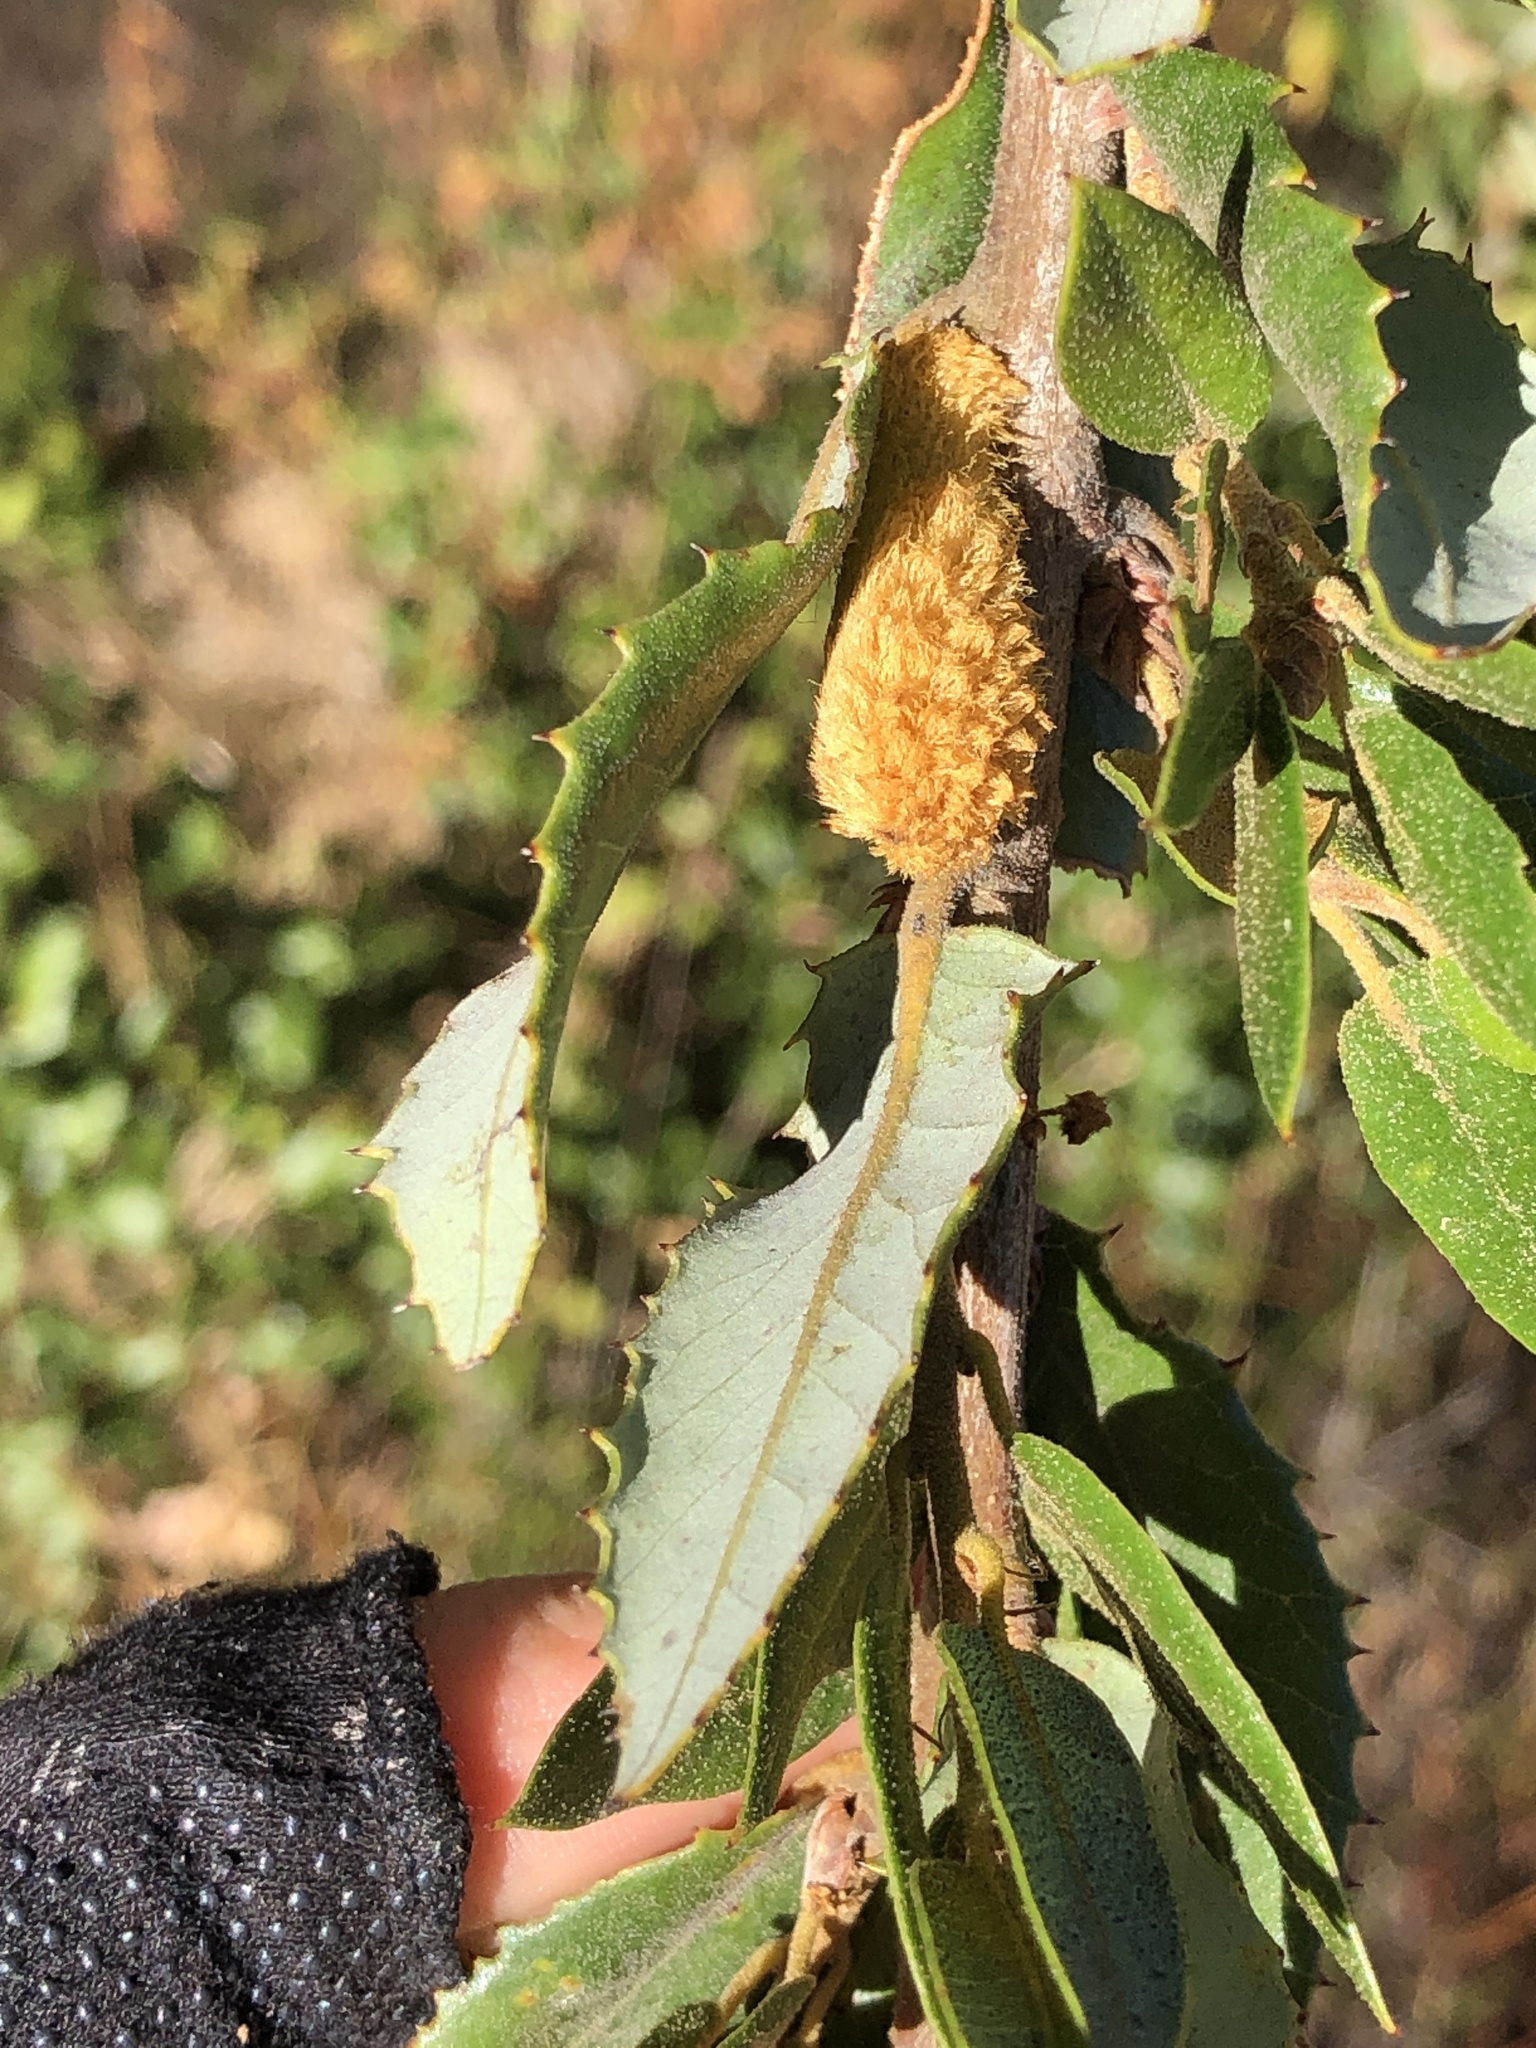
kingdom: Animalia
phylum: Arthropoda
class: Insecta
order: Hymenoptera
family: Cynipidae
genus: Heteroecus
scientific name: Heteroecus
